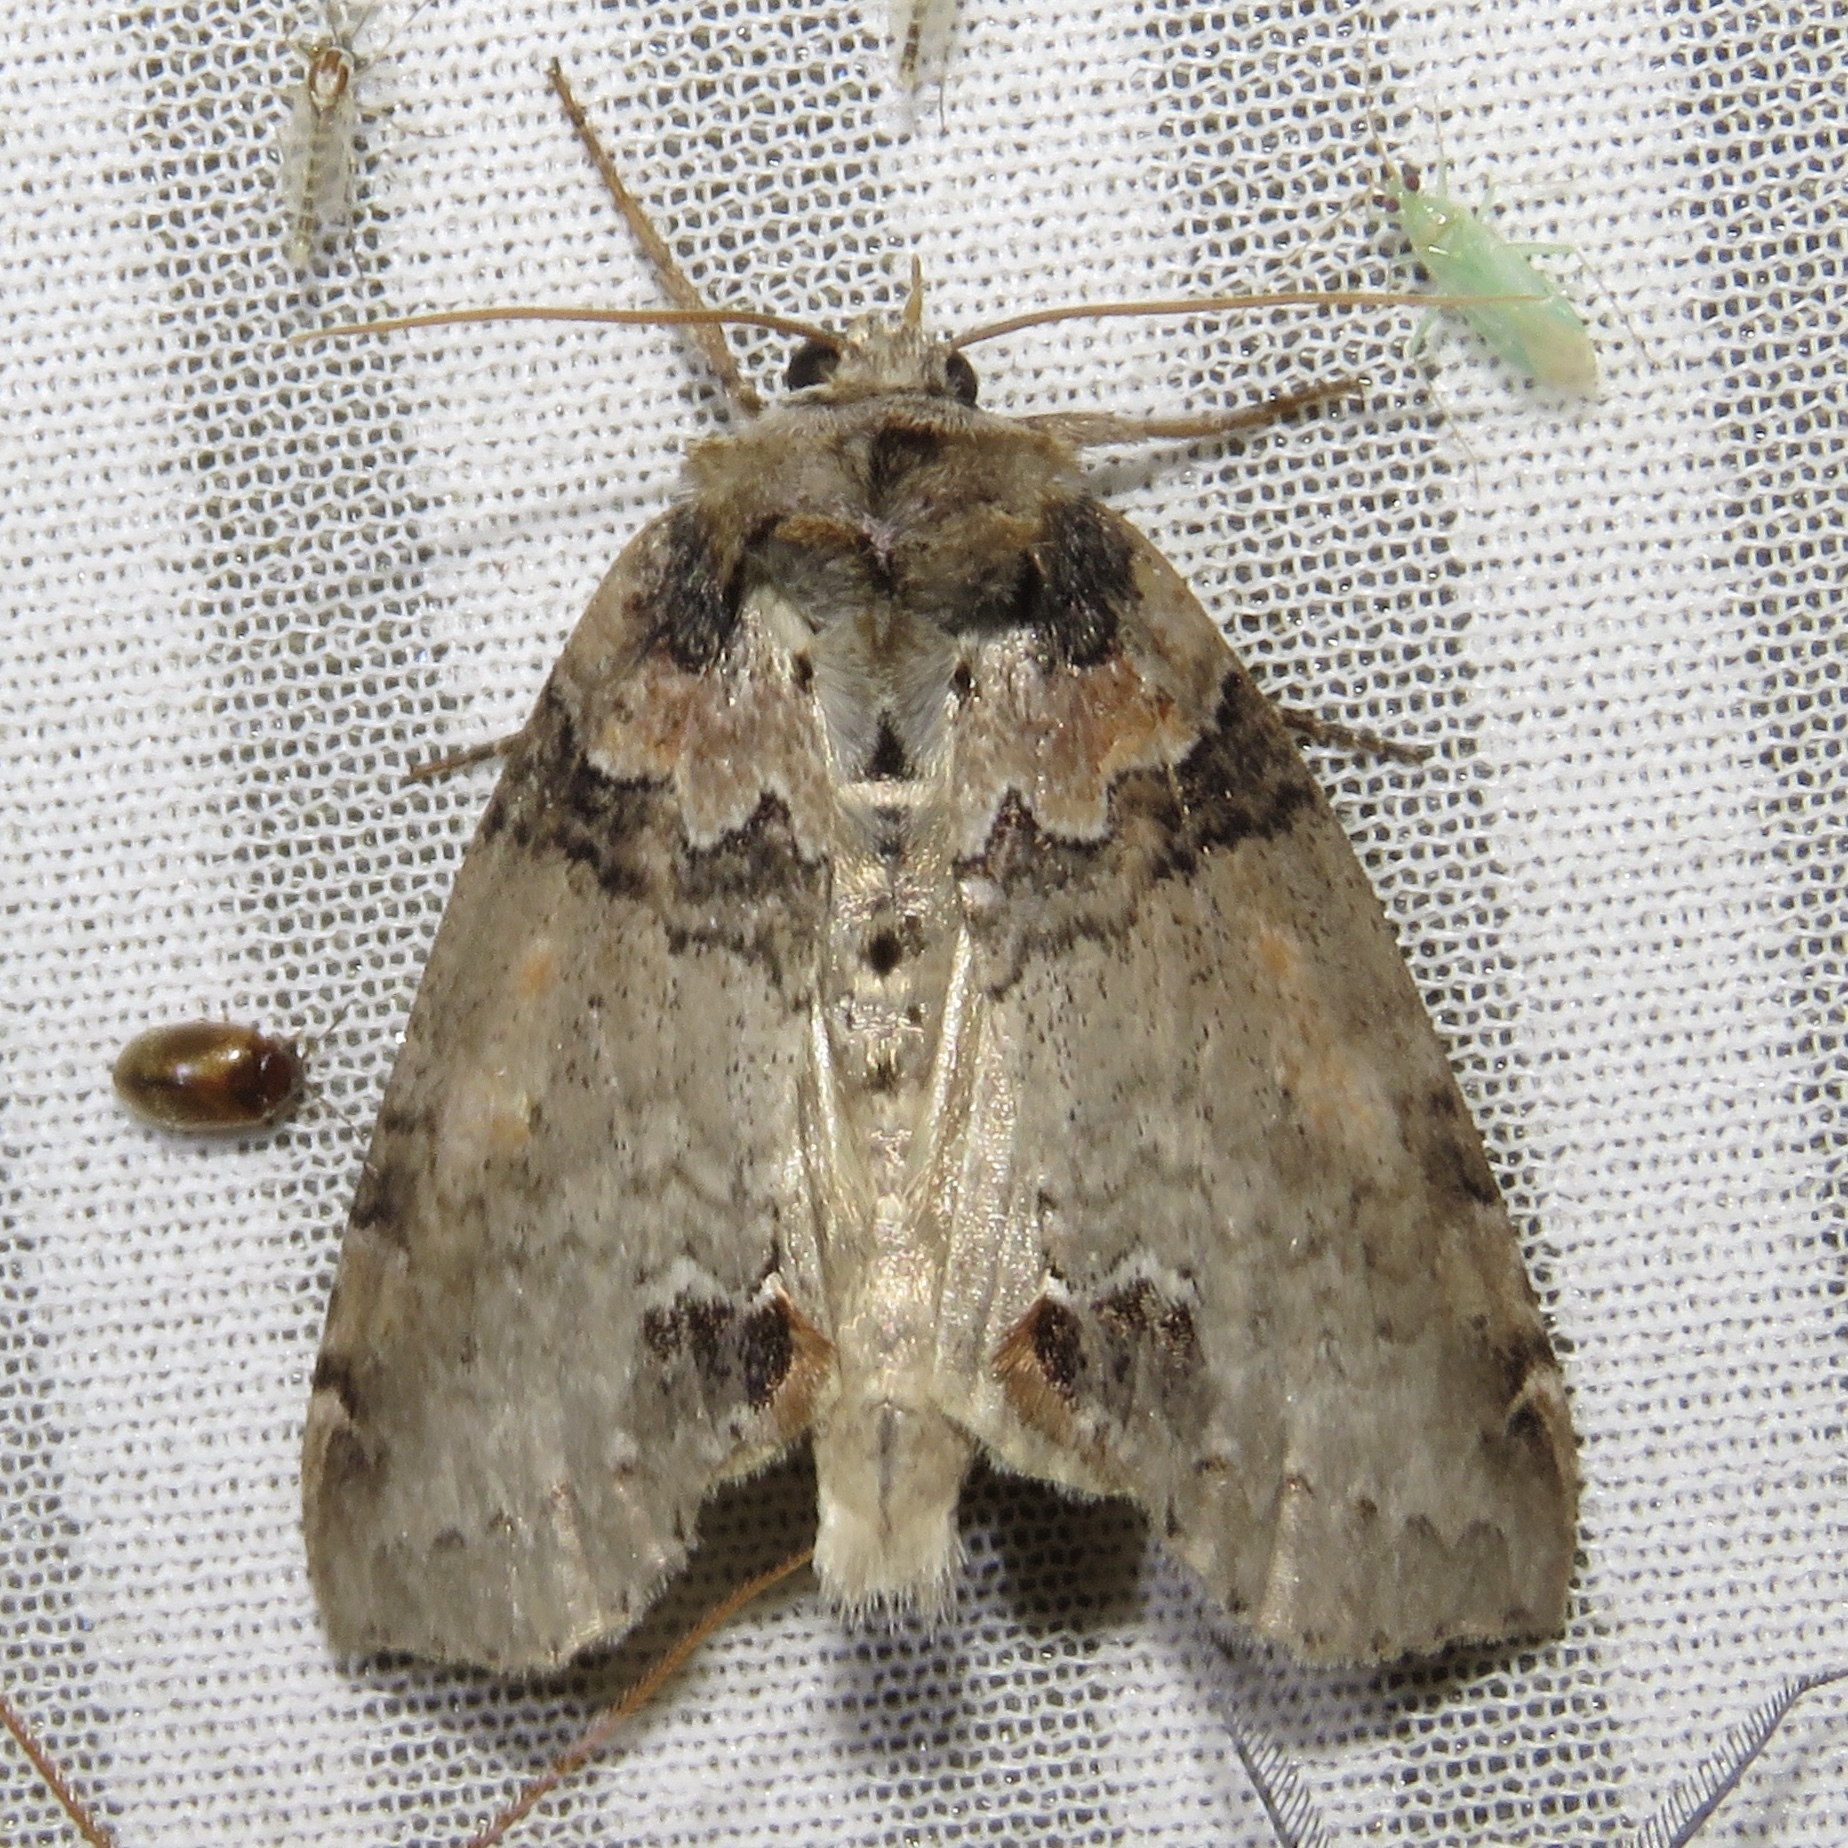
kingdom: Animalia
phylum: Arthropoda
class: Insecta
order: Lepidoptera
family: Drepanidae
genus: Pseudothyatira
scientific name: Pseudothyatira cymatophoroides
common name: Tufted thyatirid moth
